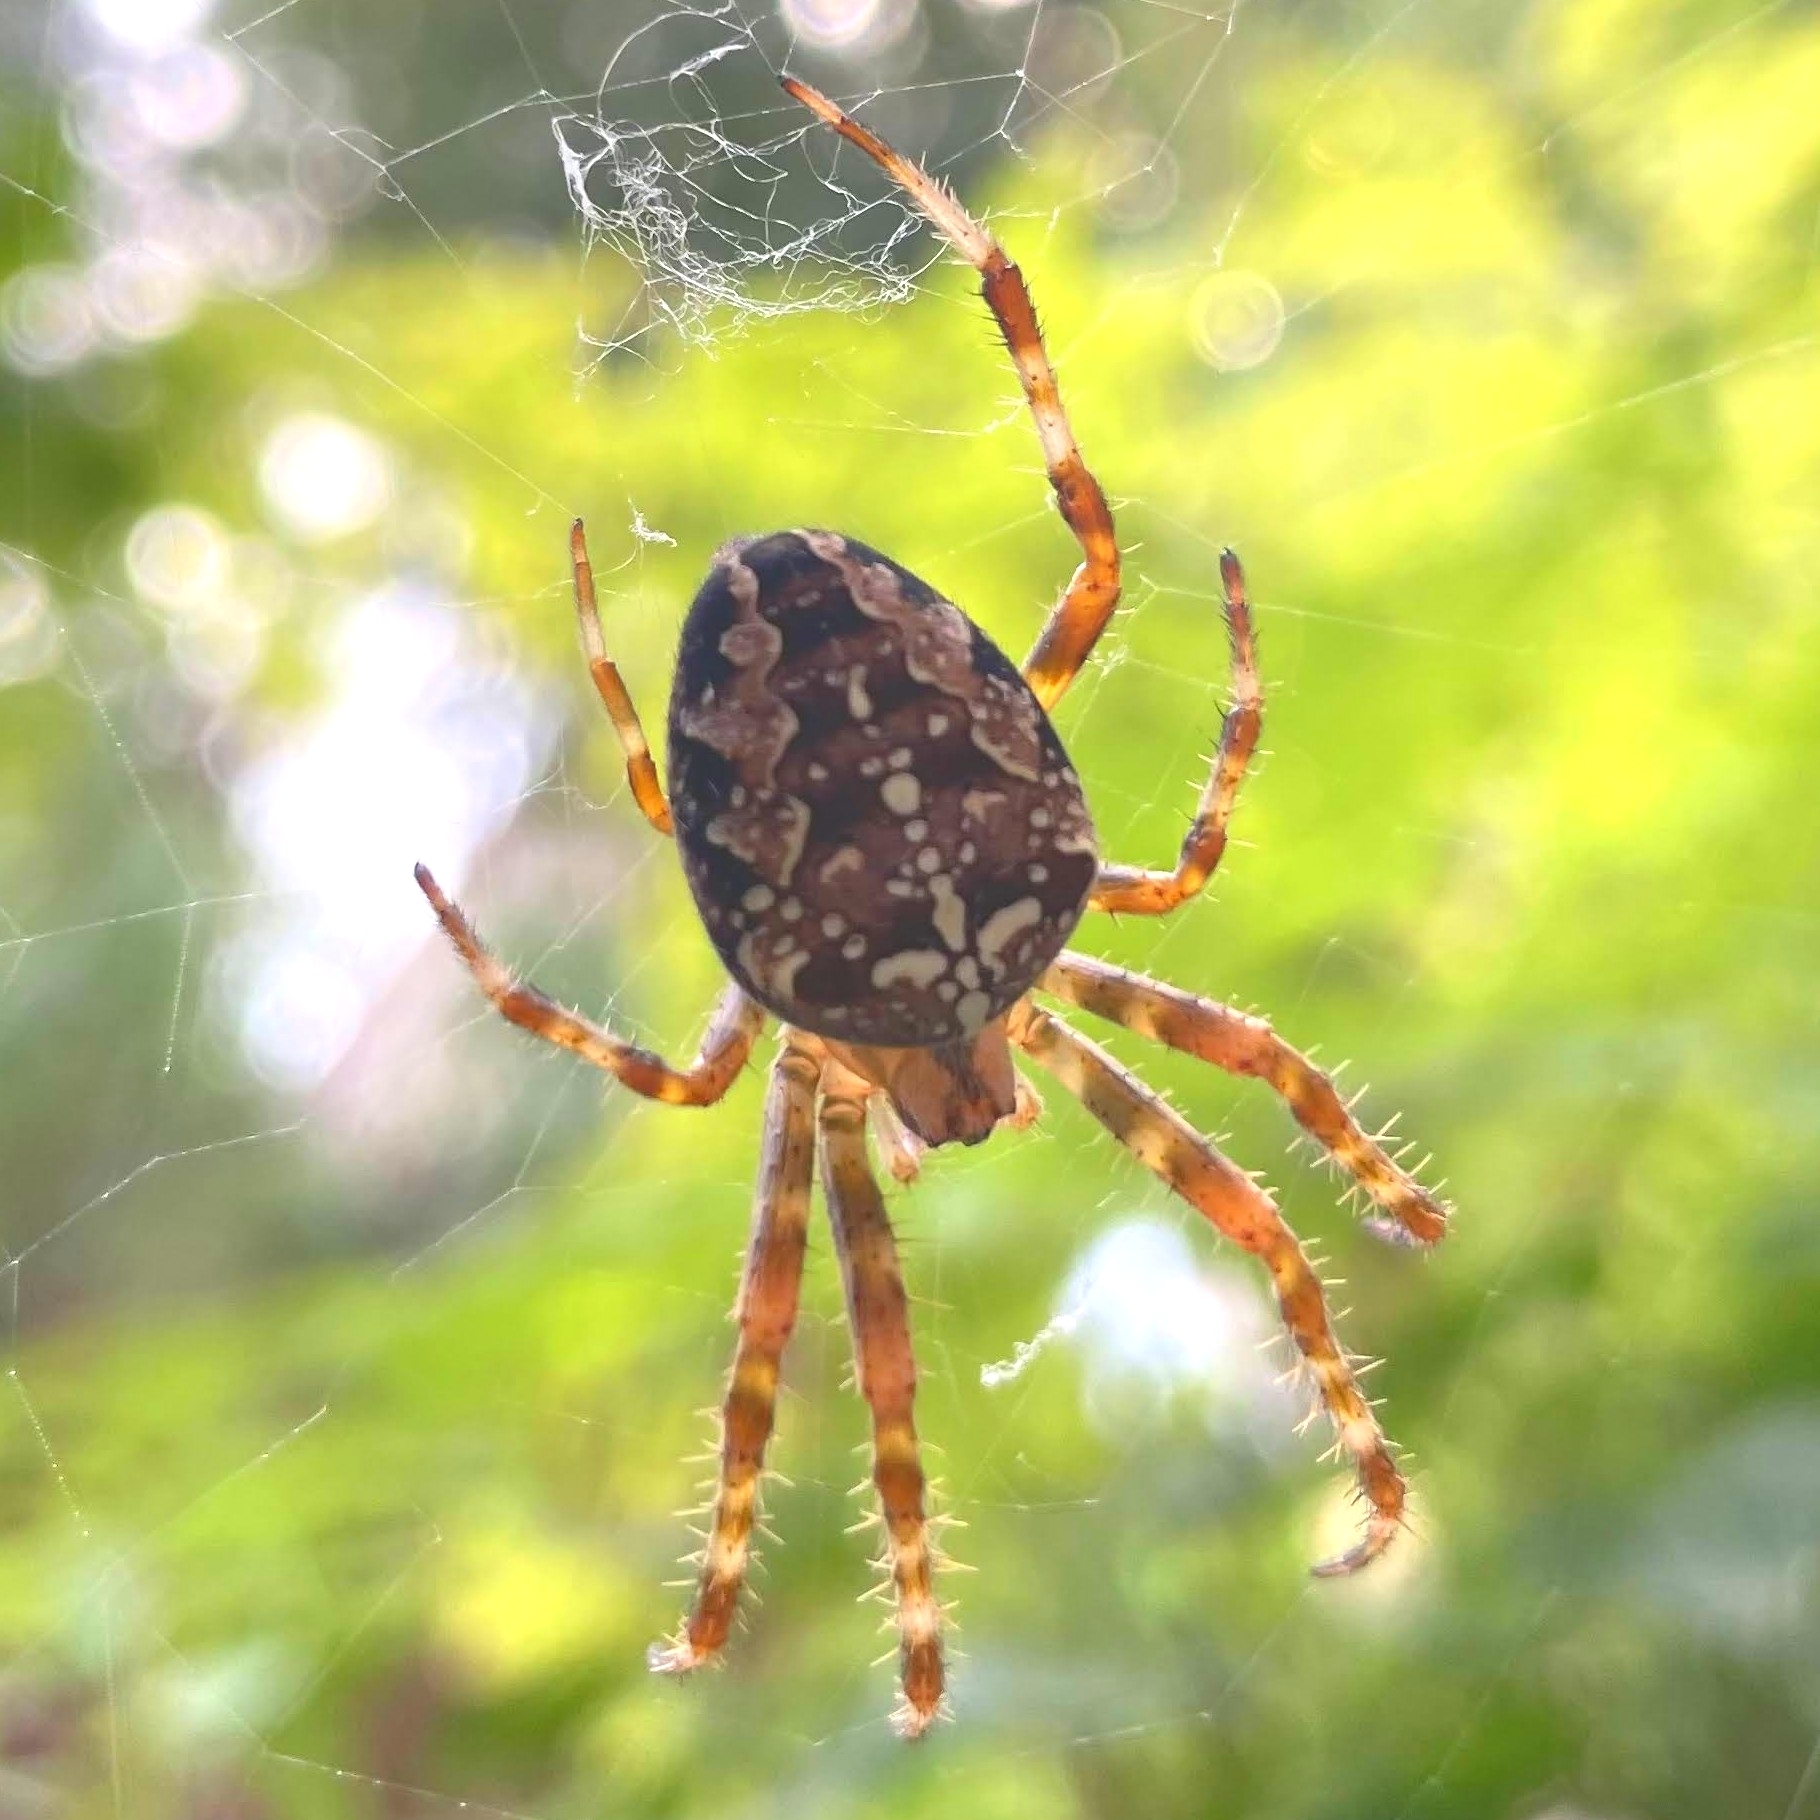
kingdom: Animalia
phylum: Arthropoda
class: Arachnida
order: Araneae
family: Araneidae
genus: Araneus
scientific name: Araneus diadematus
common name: Cross orbweaver
